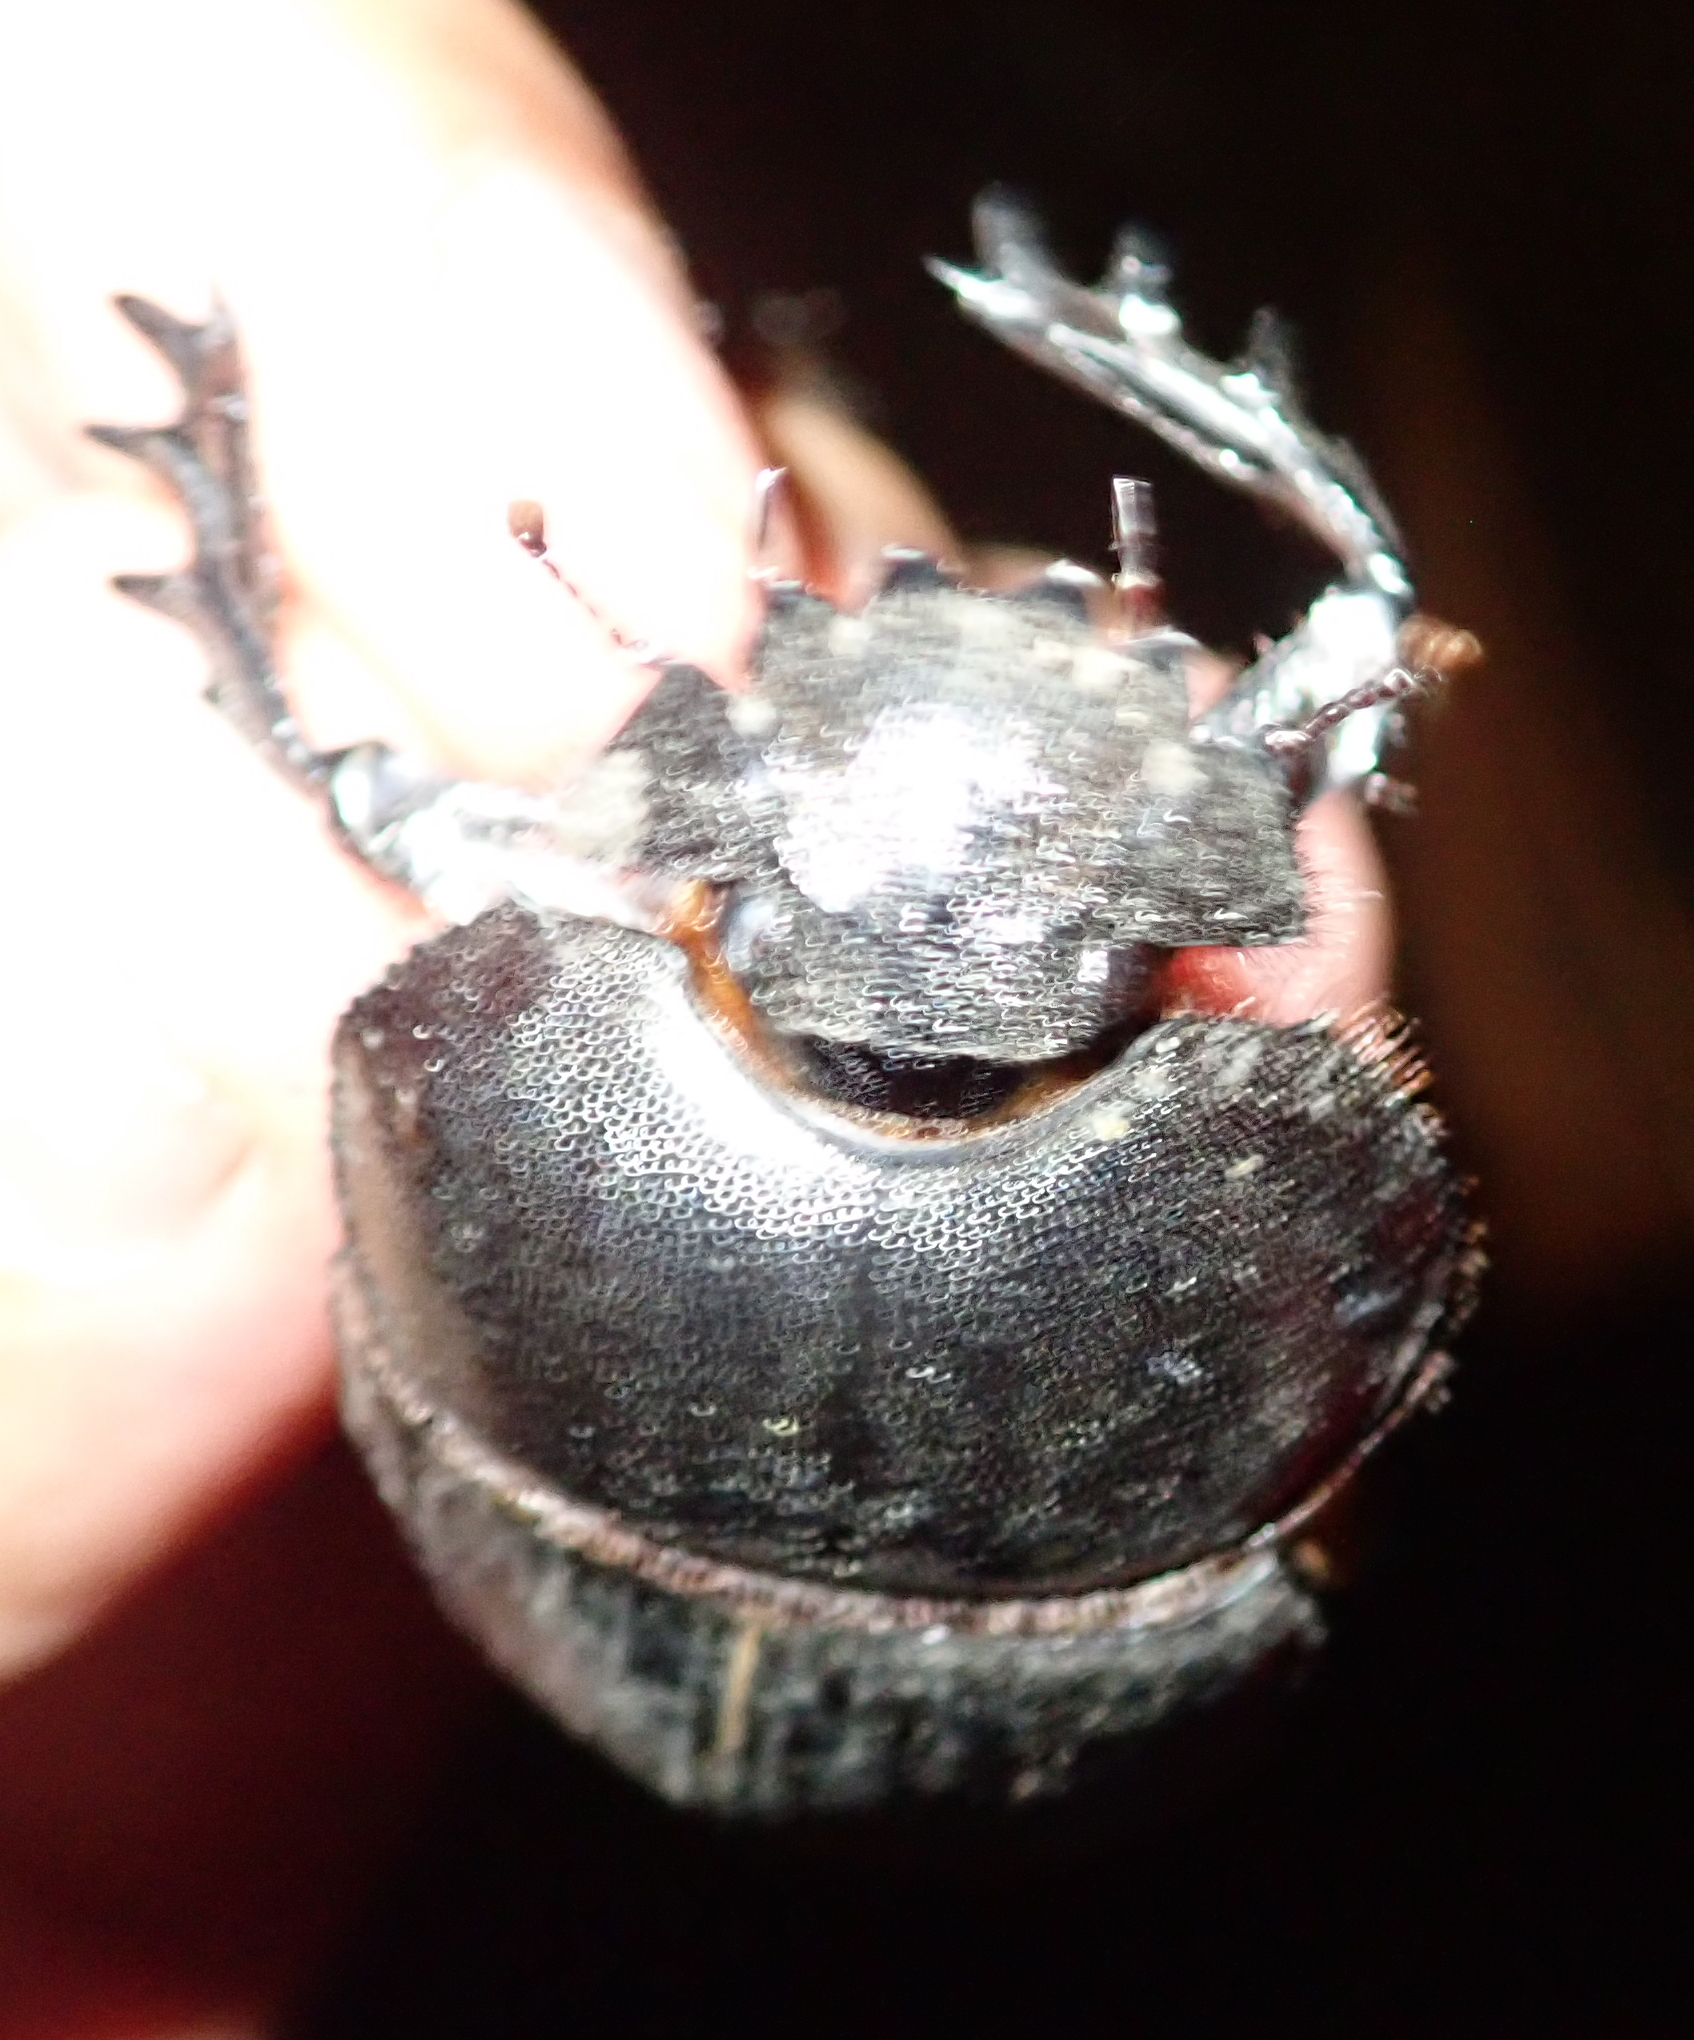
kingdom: Animalia
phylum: Arthropoda
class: Insecta
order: Coleoptera
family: Scarabaeidae
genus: Kheper
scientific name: Kheper prodigiosus
